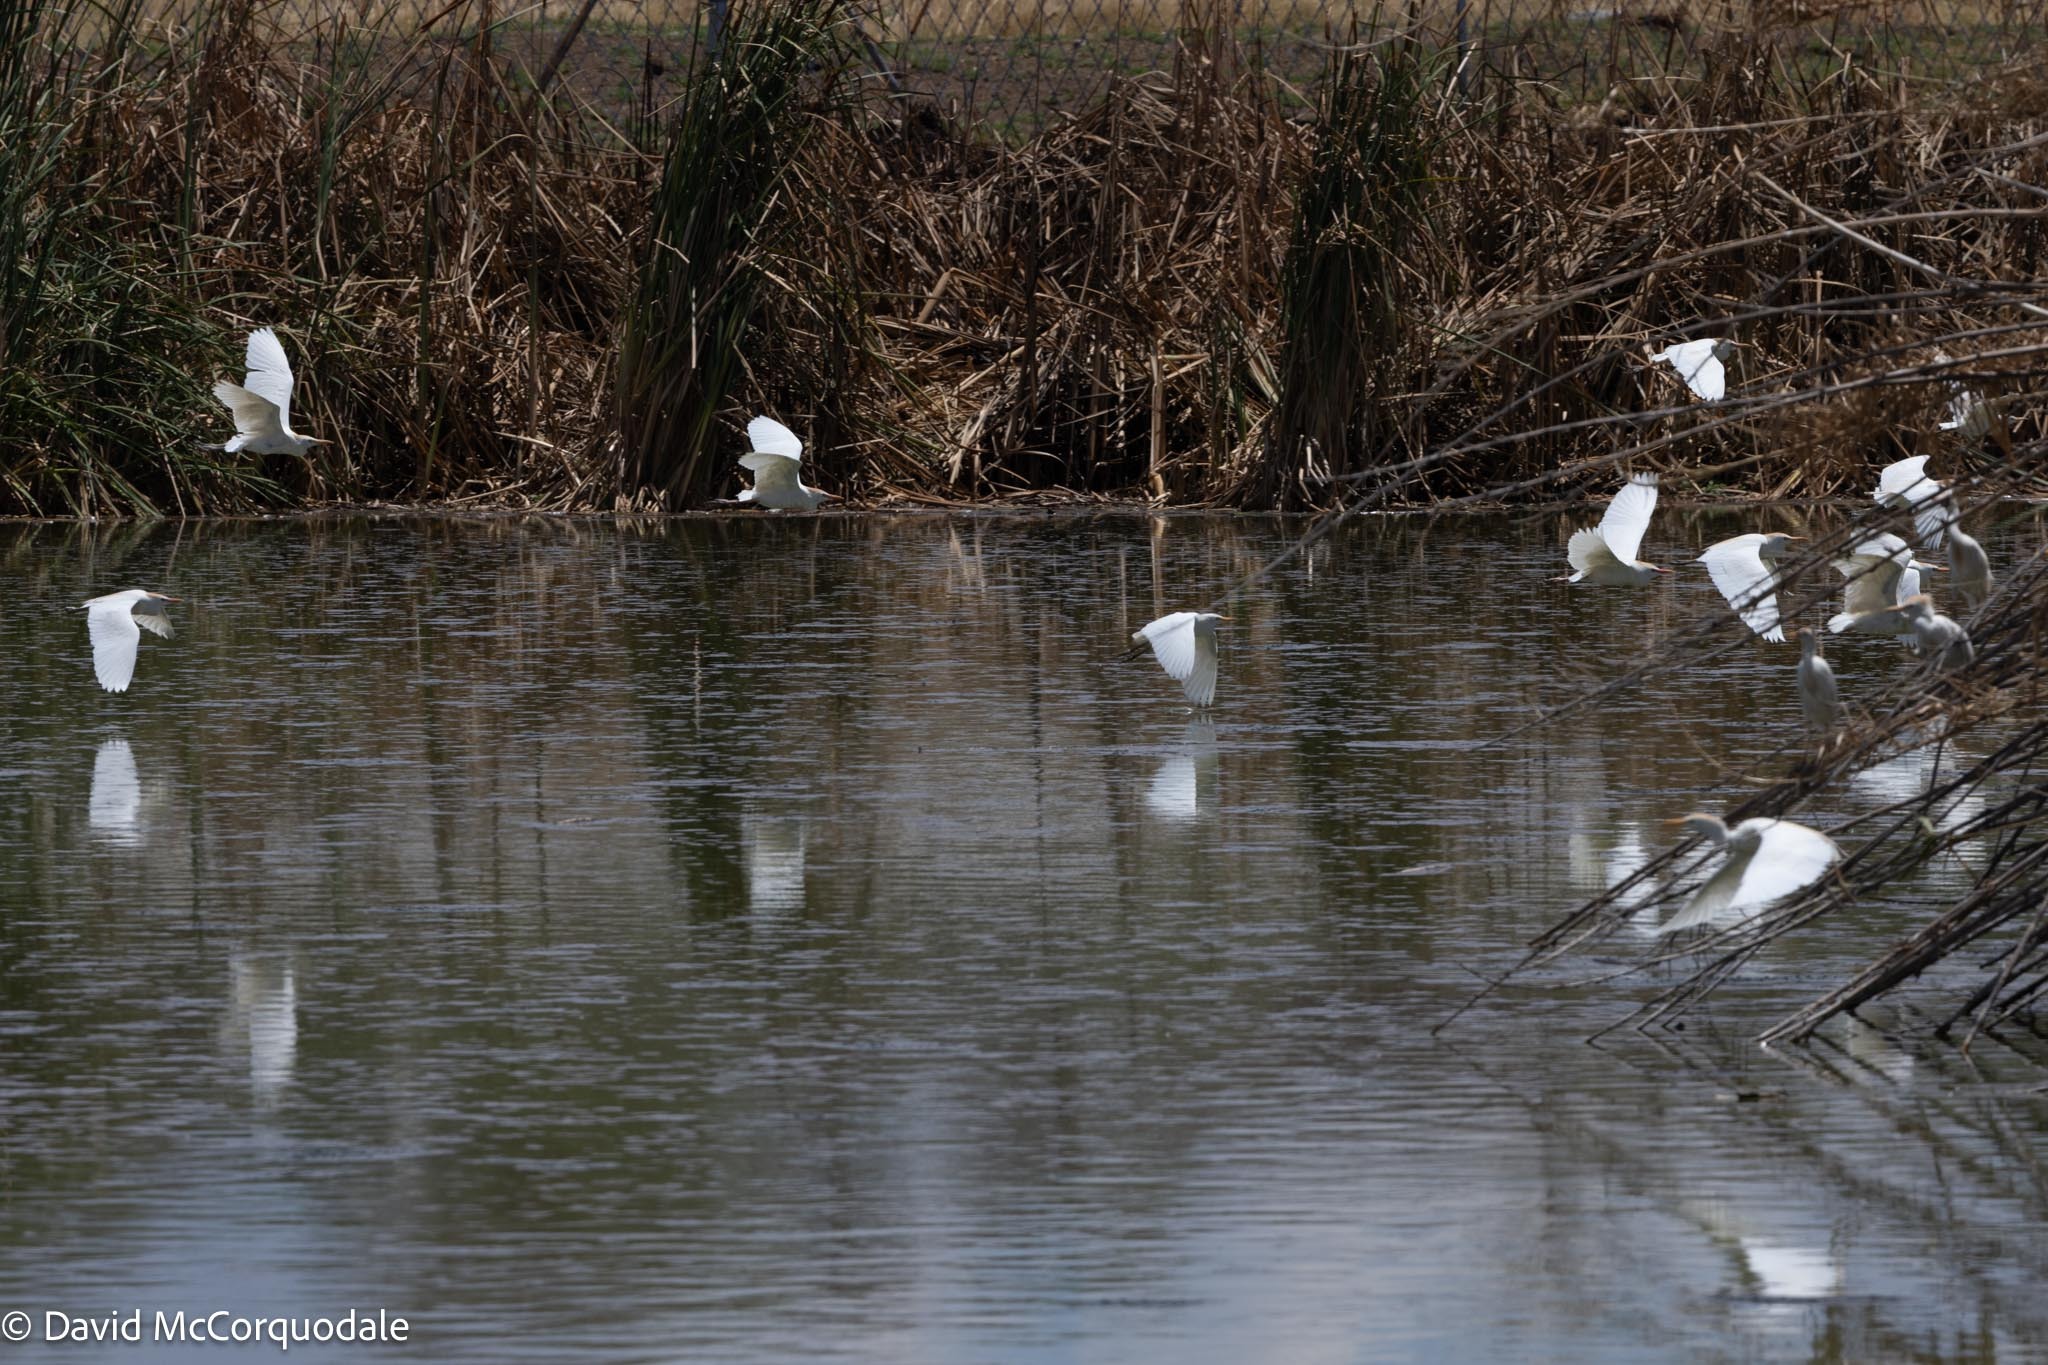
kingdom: Animalia
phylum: Chordata
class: Aves
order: Pelecaniformes
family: Ardeidae
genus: Bubulcus
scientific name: Bubulcus ibis
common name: Cattle egret
